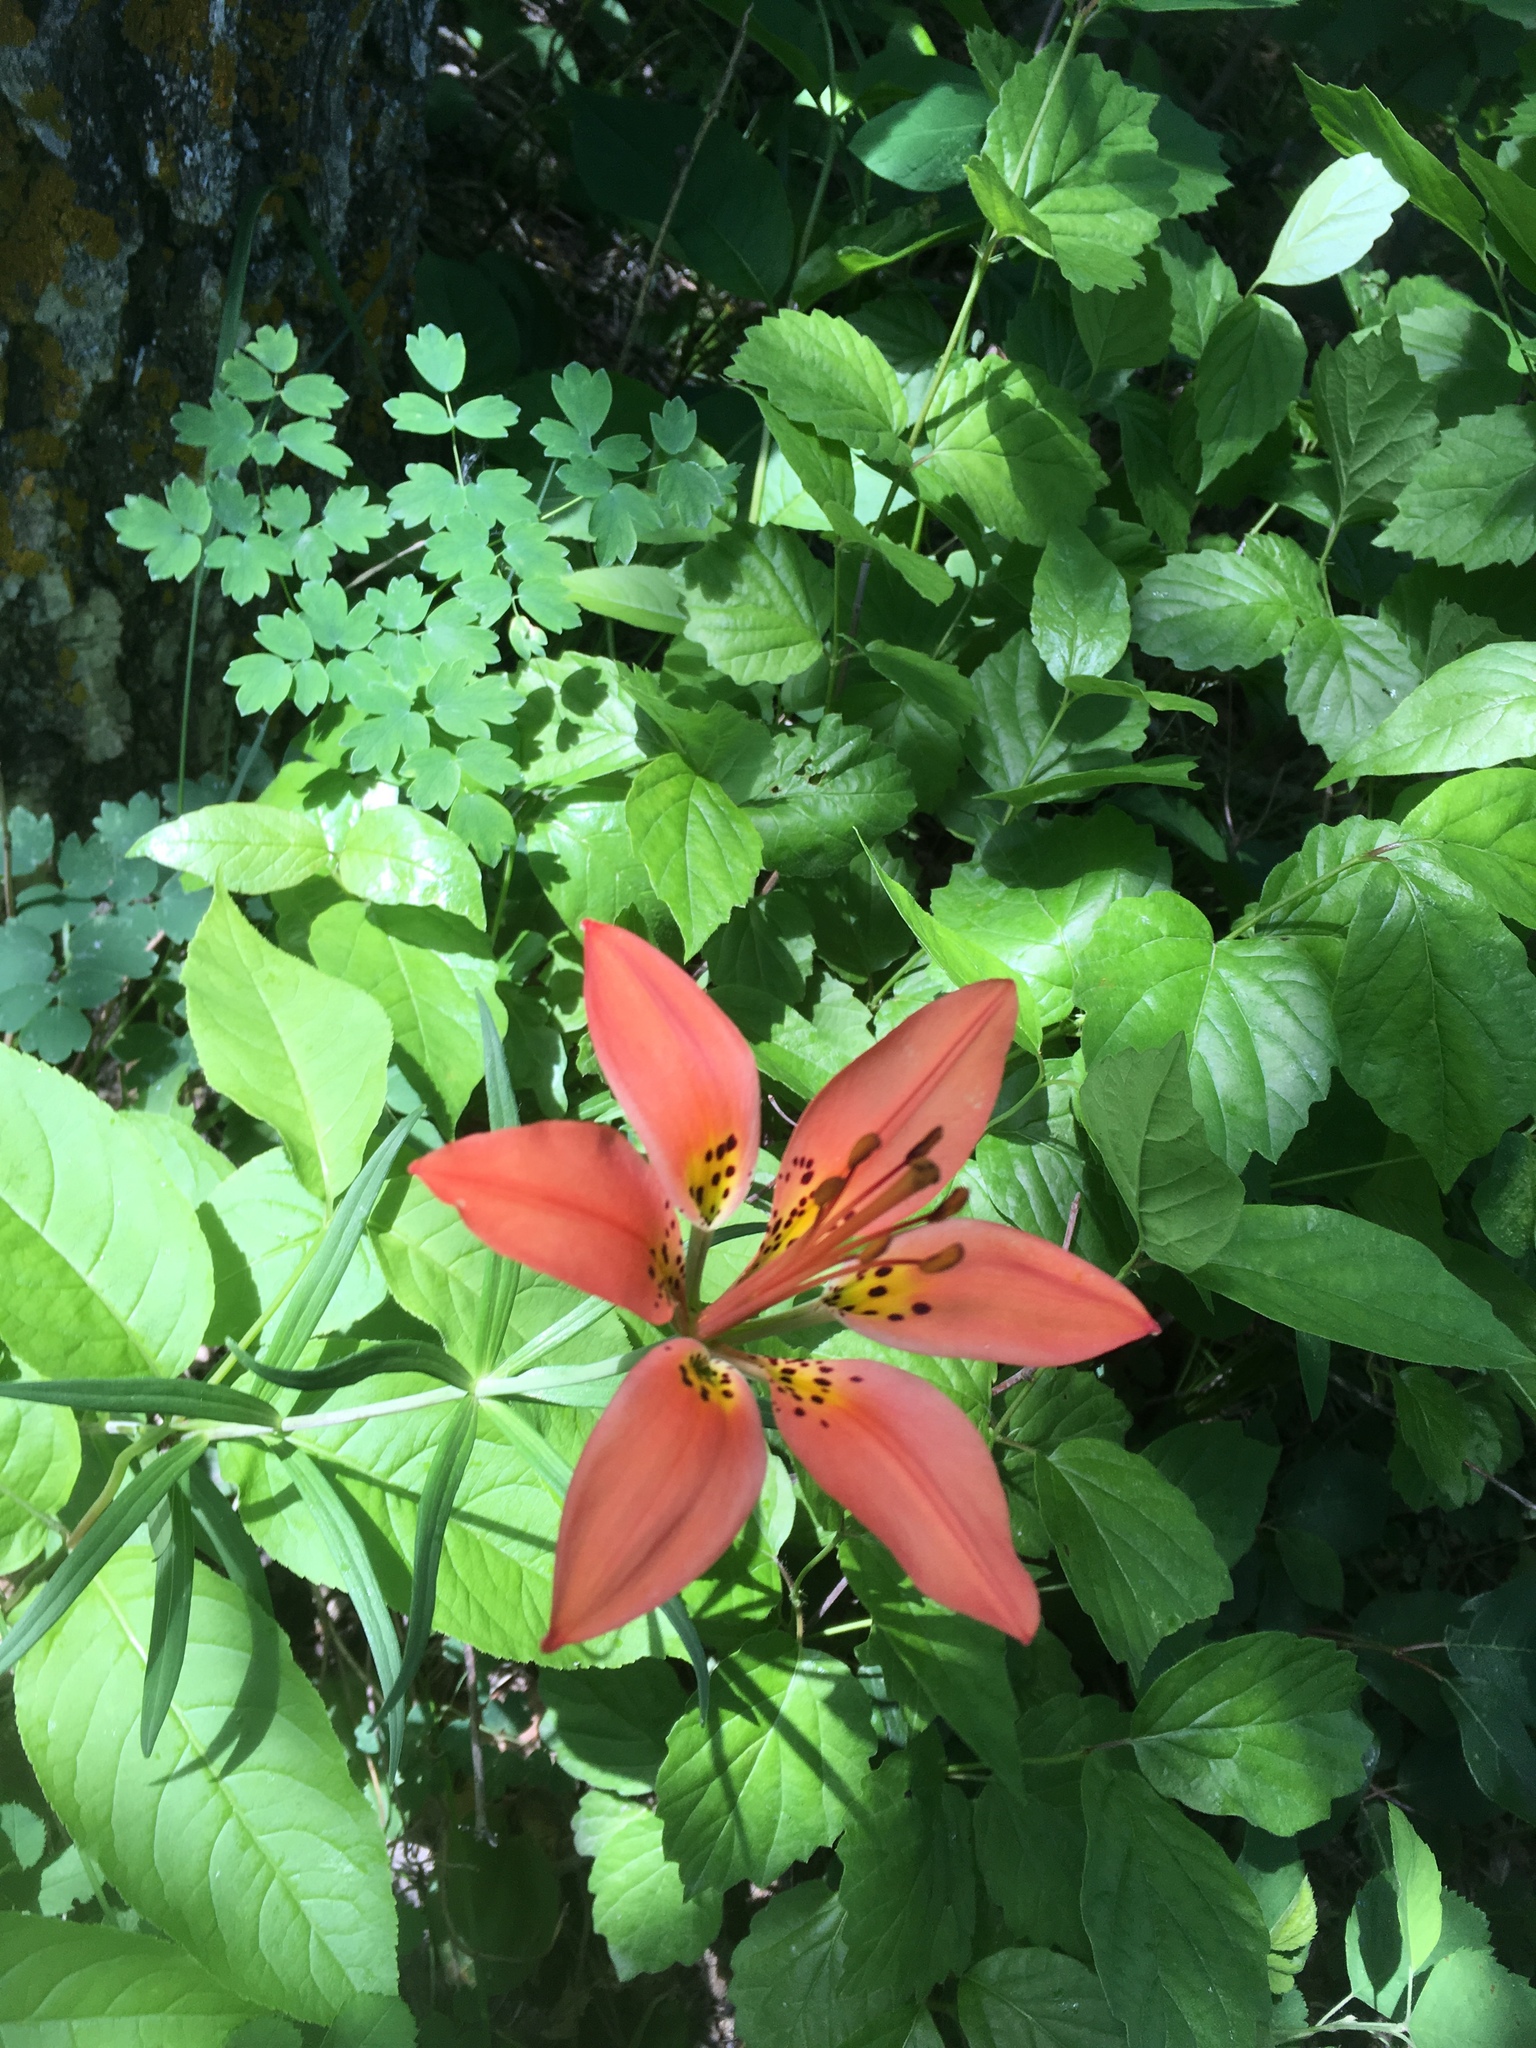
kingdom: Plantae
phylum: Tracheophyta
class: Liliopsida
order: Liliales
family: Liliaceae
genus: Lilium
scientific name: Lilium philadelphicum
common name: Red lily
